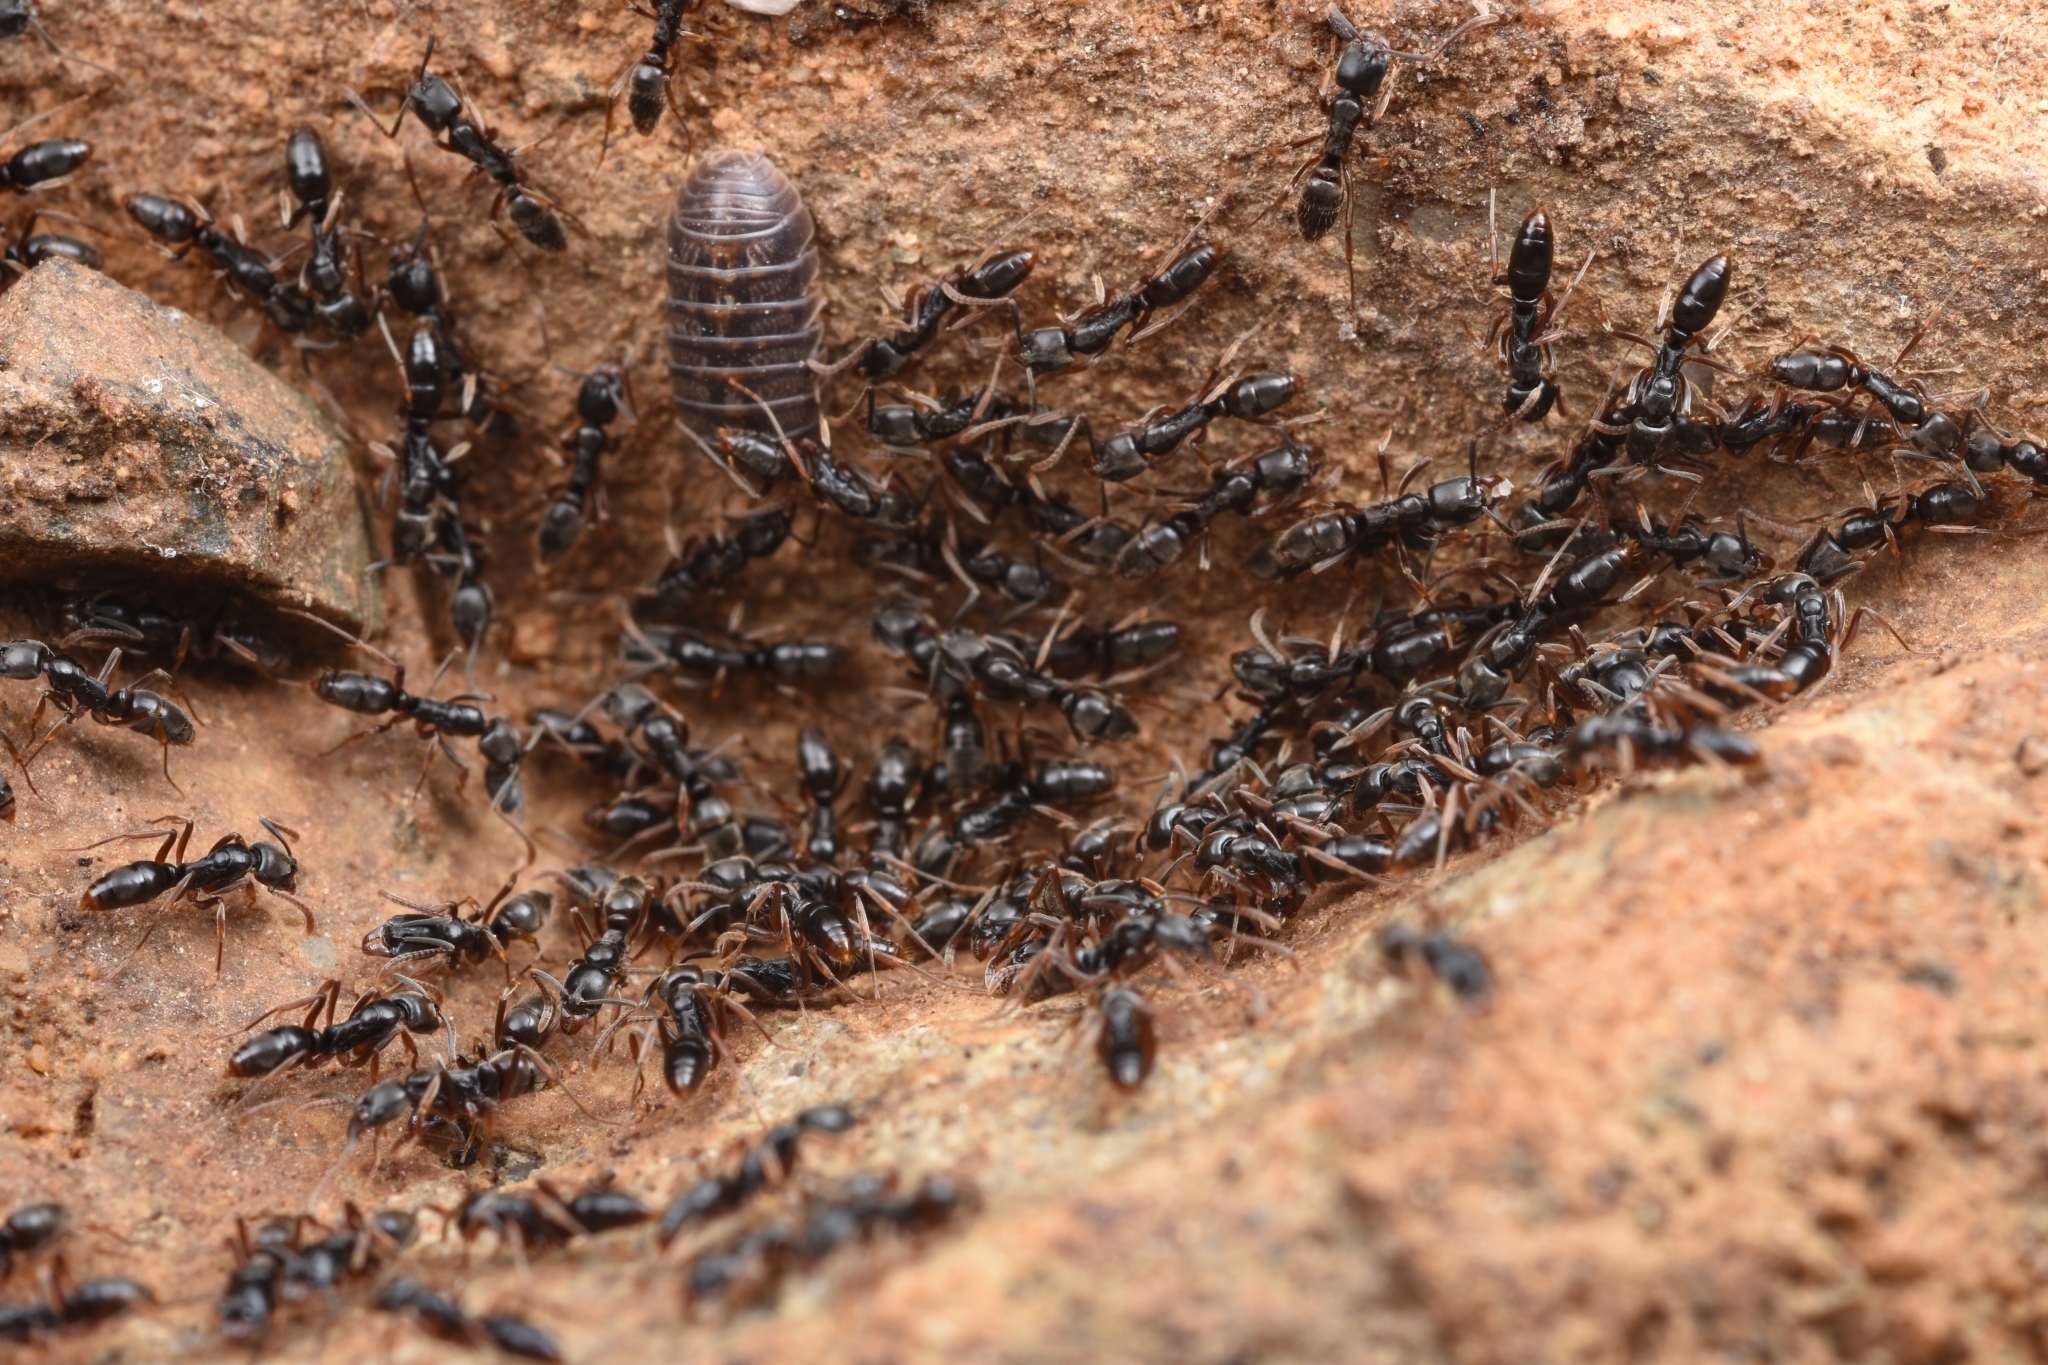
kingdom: Animalia
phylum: Arthropoda
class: Insecta
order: Hymenoptera
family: Formicidae
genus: Pachycondyla
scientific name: Pachycondyla chinensis
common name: Asian needle ant
